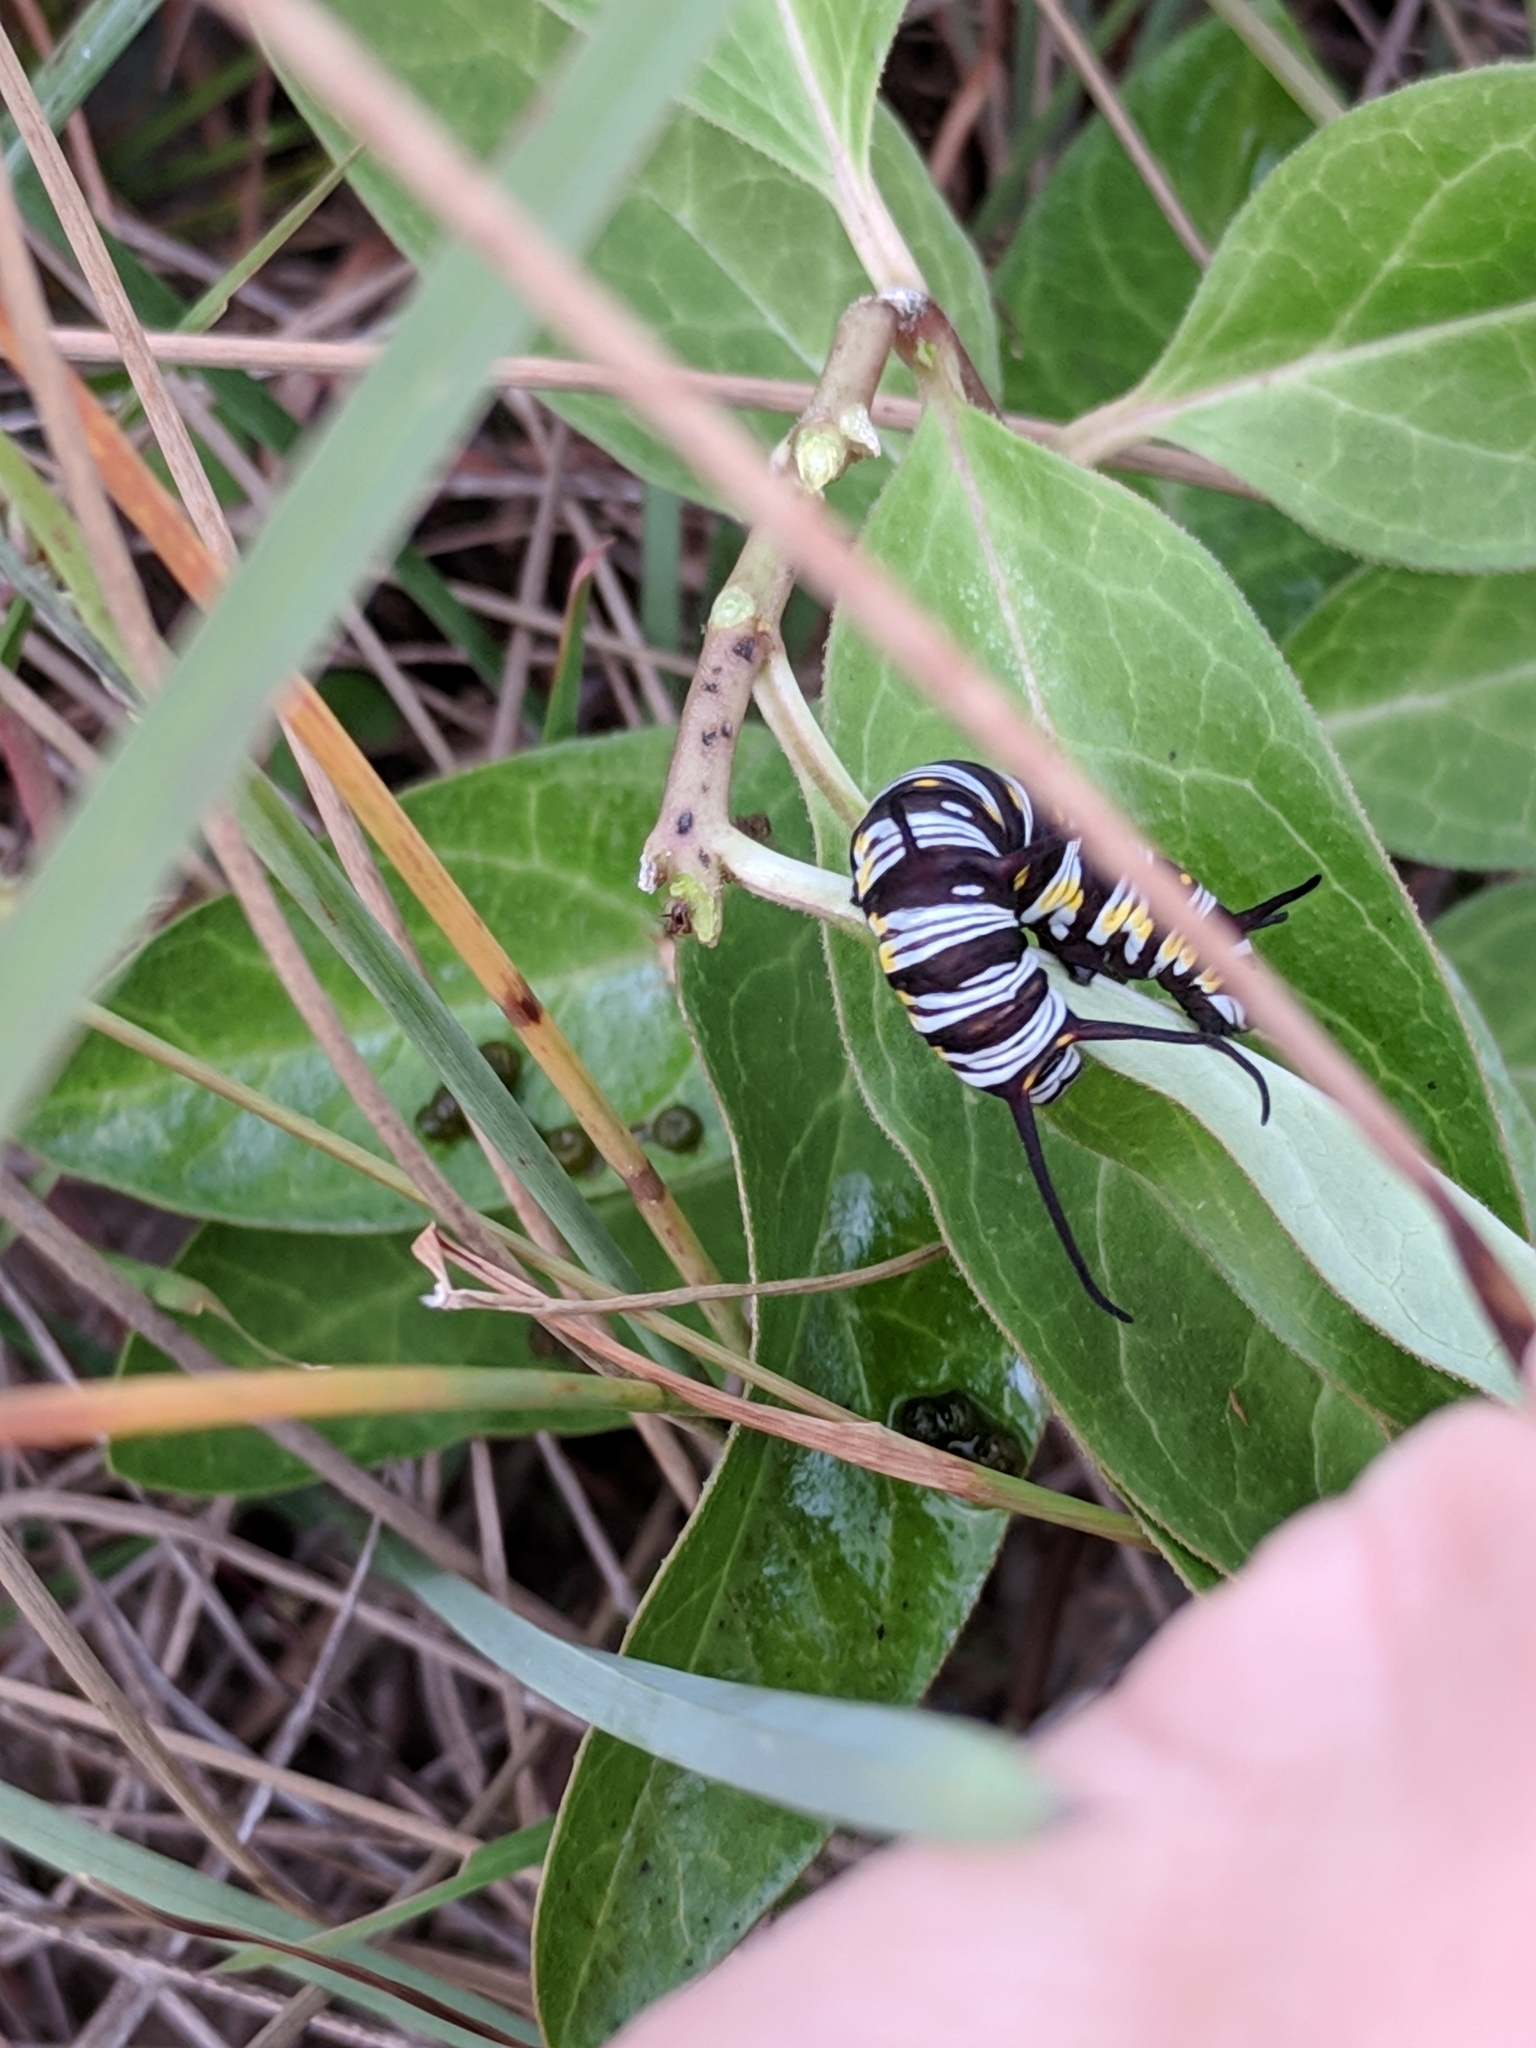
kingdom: Animalia
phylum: Arthropoda
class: Insecta
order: Lepidoptera
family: Nymphalidae
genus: Danaus
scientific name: Danaus gilippus
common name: Queen
